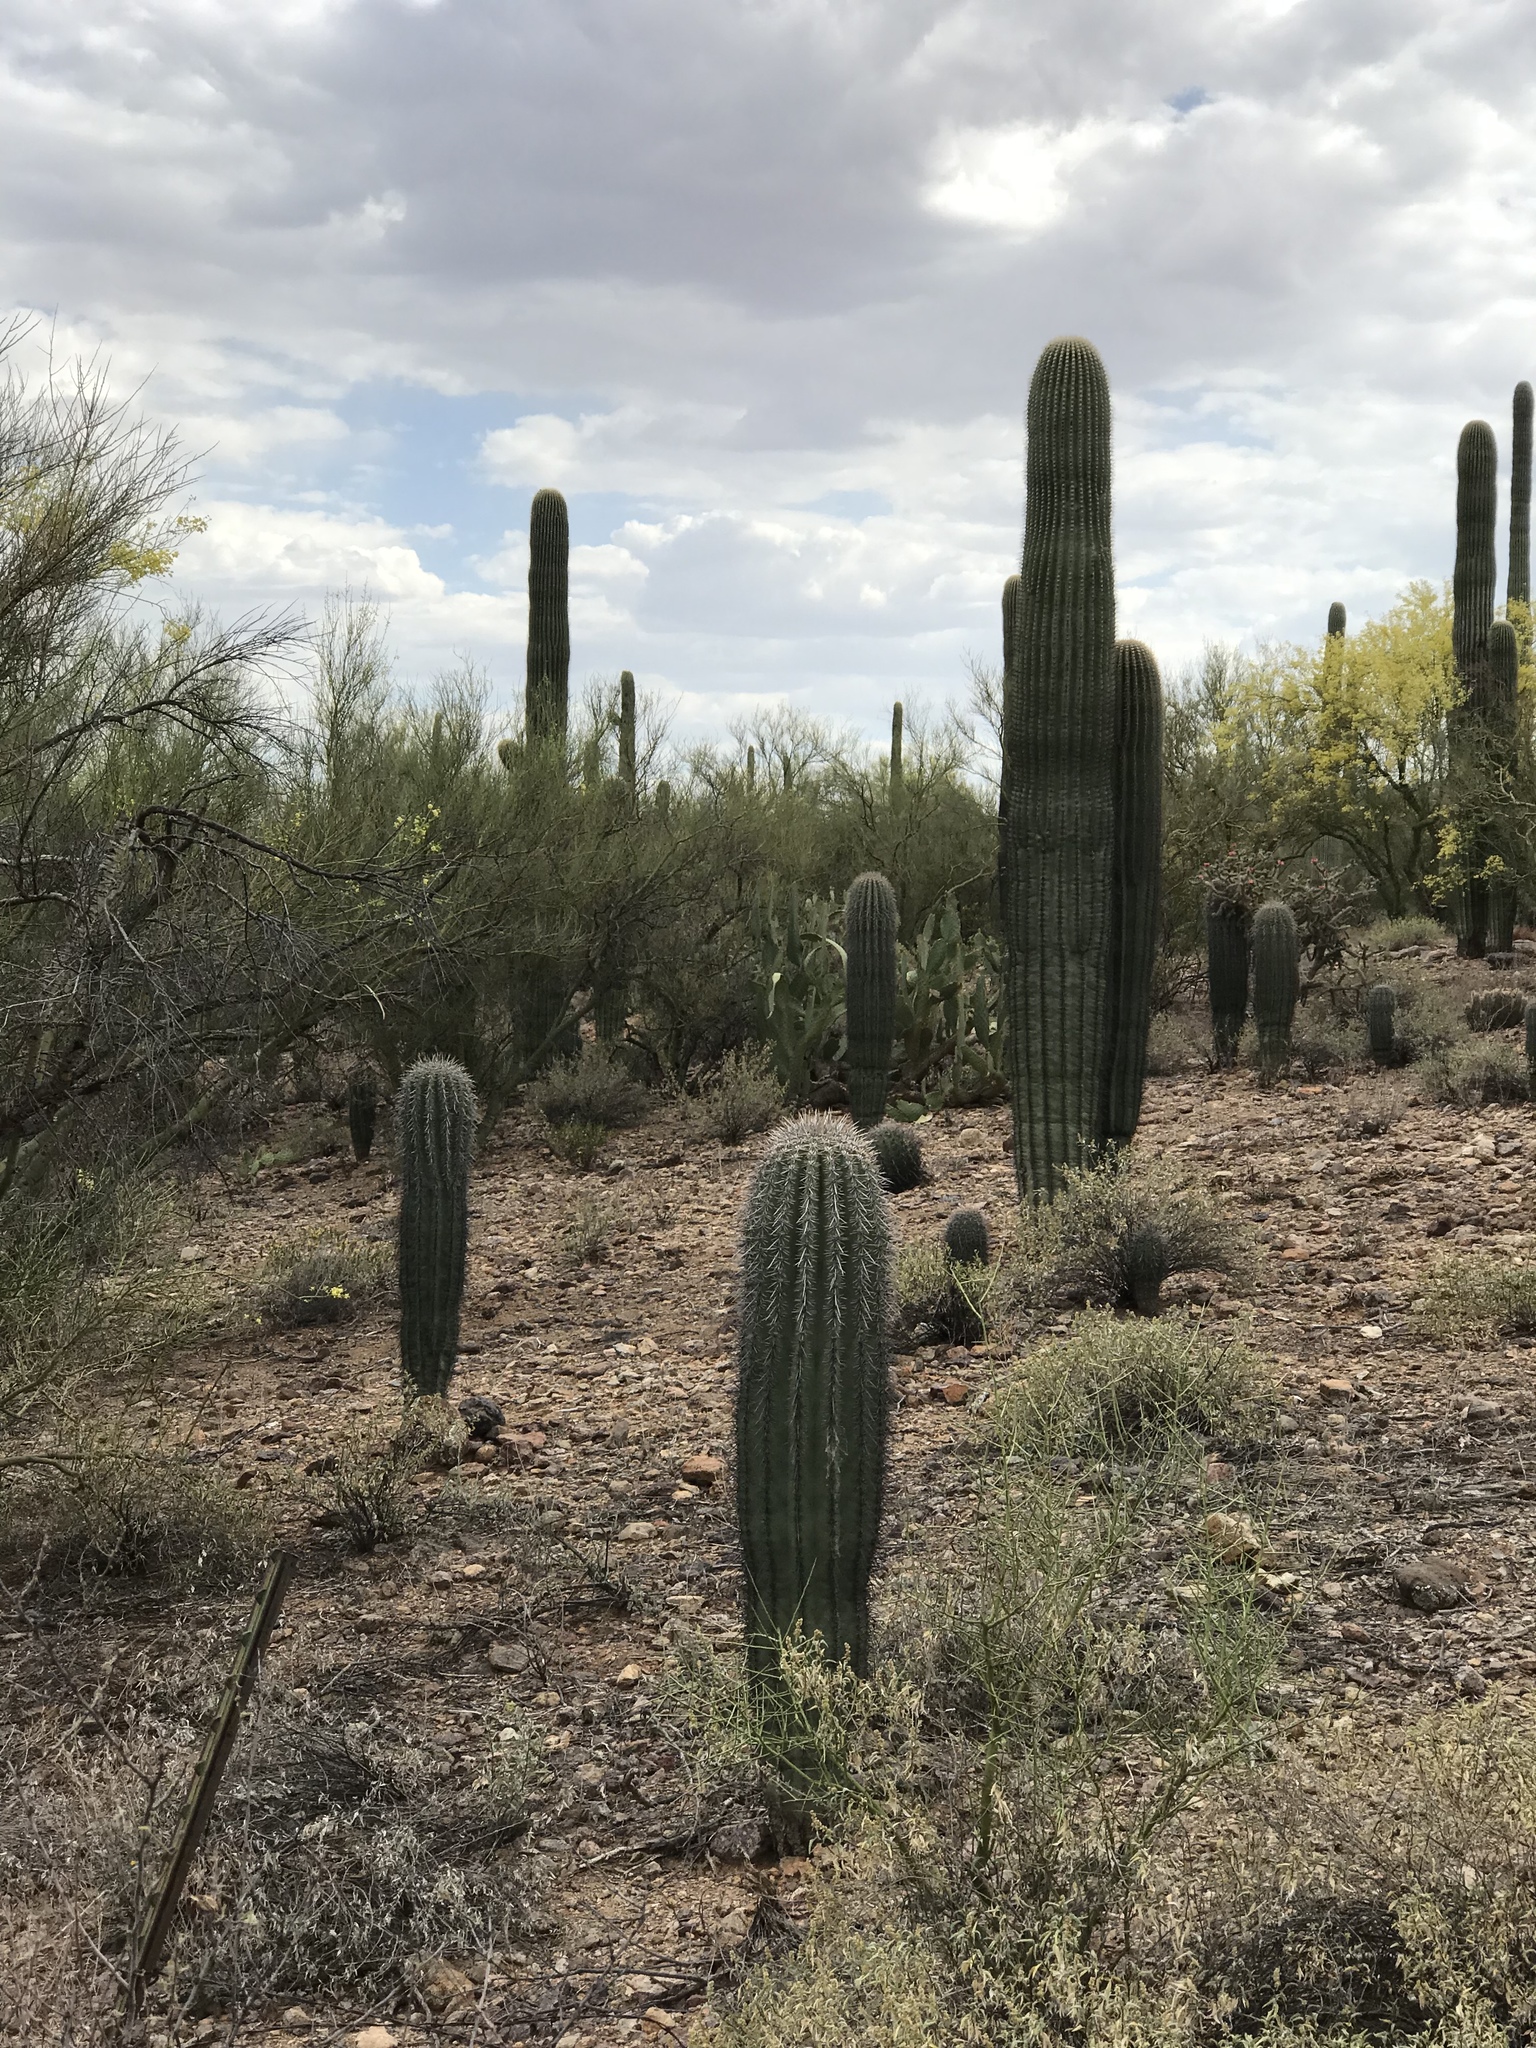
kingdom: Plantae
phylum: Tracheophyta
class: Magnoliopsida
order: Caryophyllales
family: Cactaceae
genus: Carnegiea
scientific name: Carnegiea gigantea
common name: Saguaro
